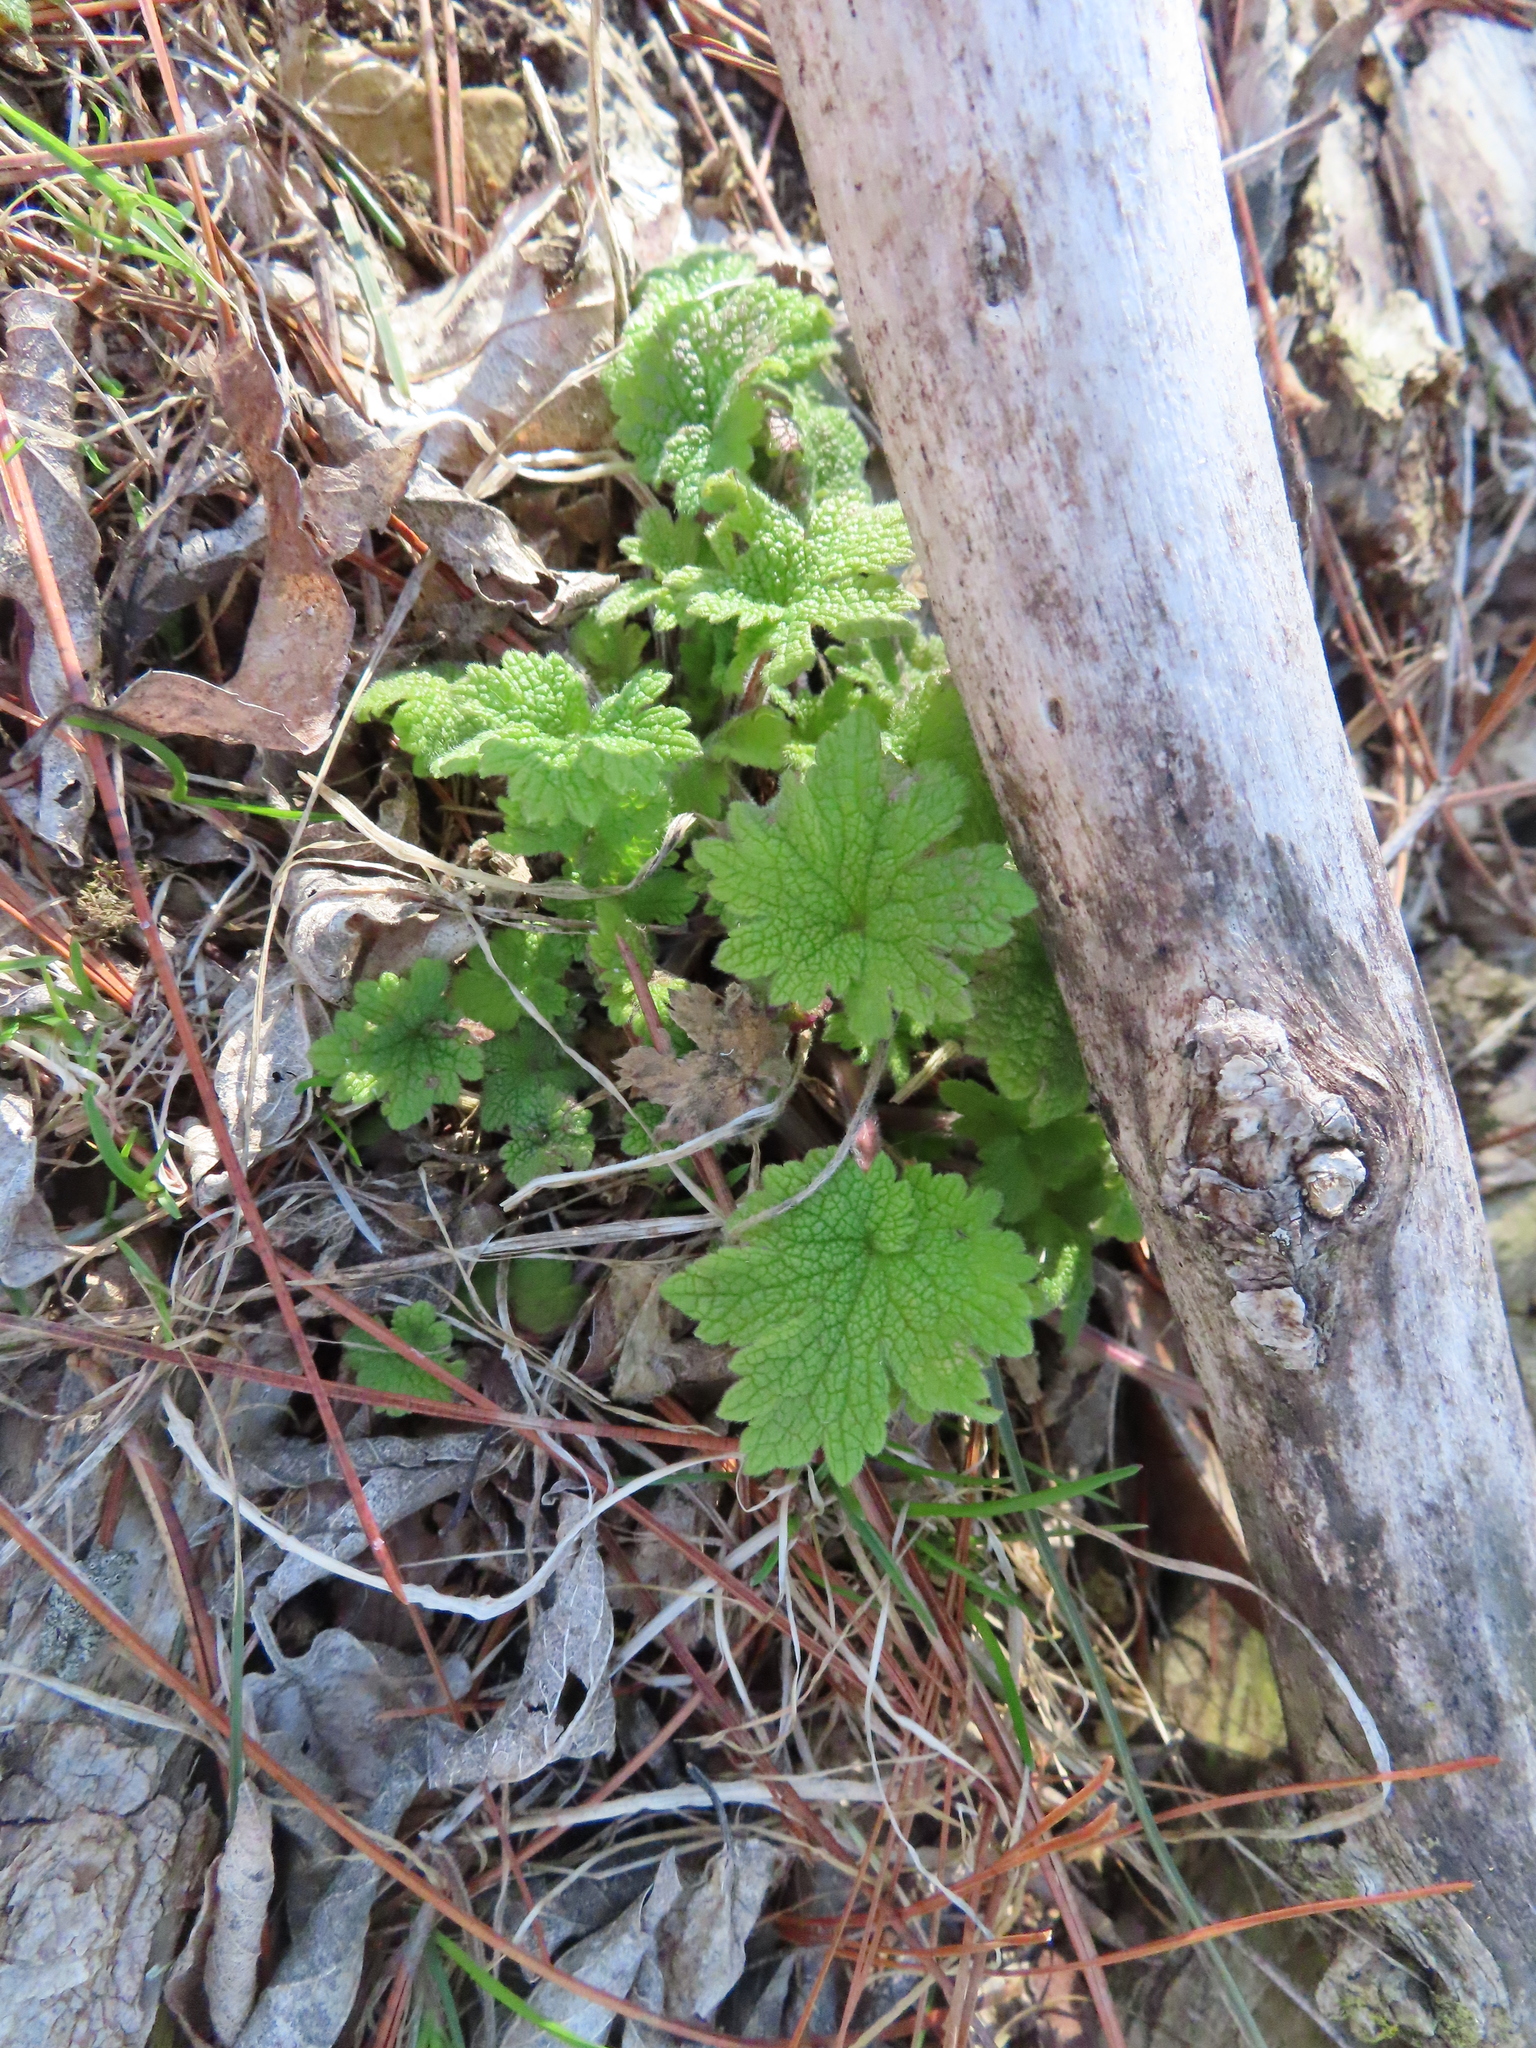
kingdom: Plantae
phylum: Tracheophyta
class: Magnoliopsida
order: Lamiales
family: Lamiaceae
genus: Leonurus
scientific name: Leonurus cardiaca
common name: Motherwort
